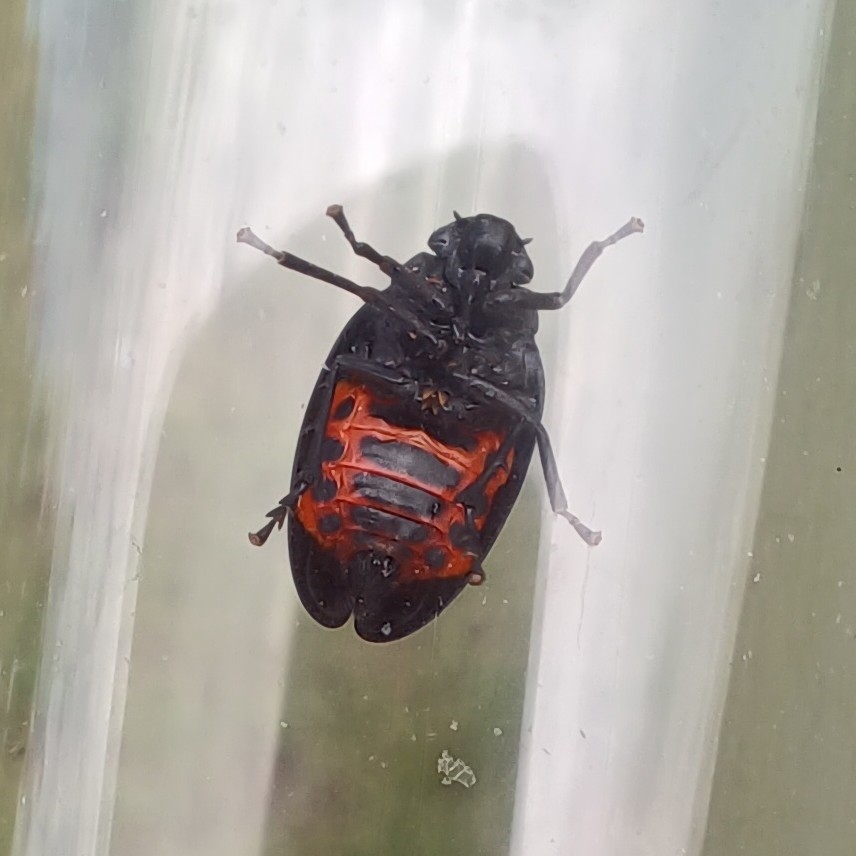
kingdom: Animalia
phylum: Arthropoda
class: Insecta
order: Hemiptera
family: Cercopidae
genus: Cercopis
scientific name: Cercopis sanguinolenta
